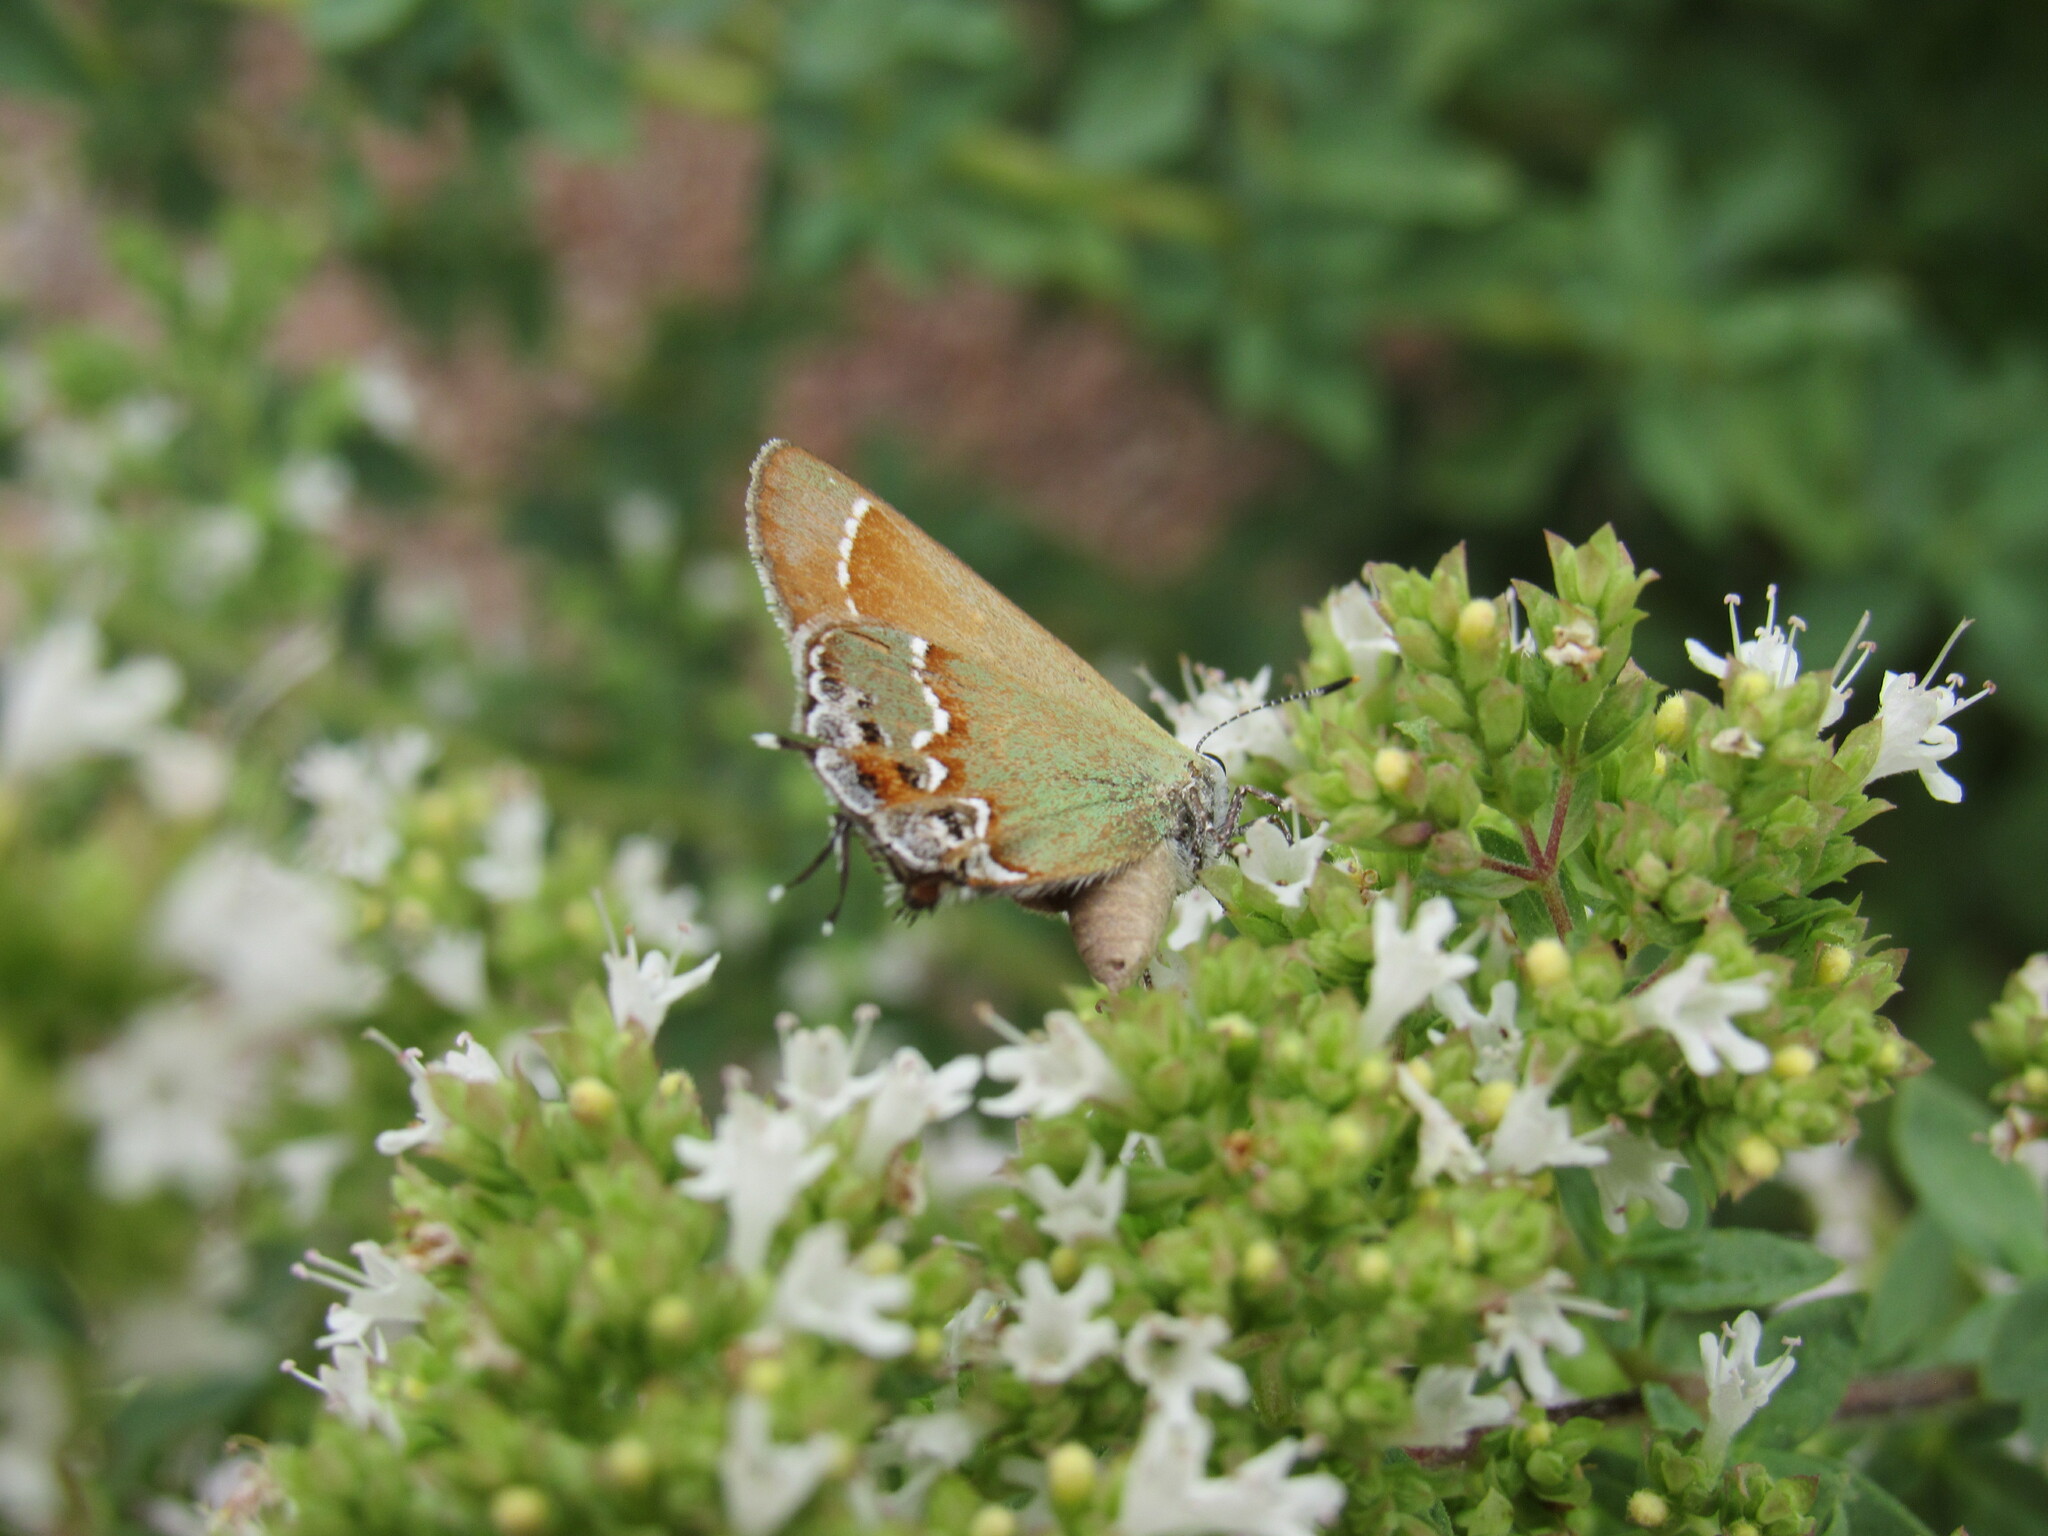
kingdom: Animalia
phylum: Arthropoda
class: Insecta
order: Lepidoptera
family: Lycaenidae
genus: Mitoura
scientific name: Mitoura gryneus
